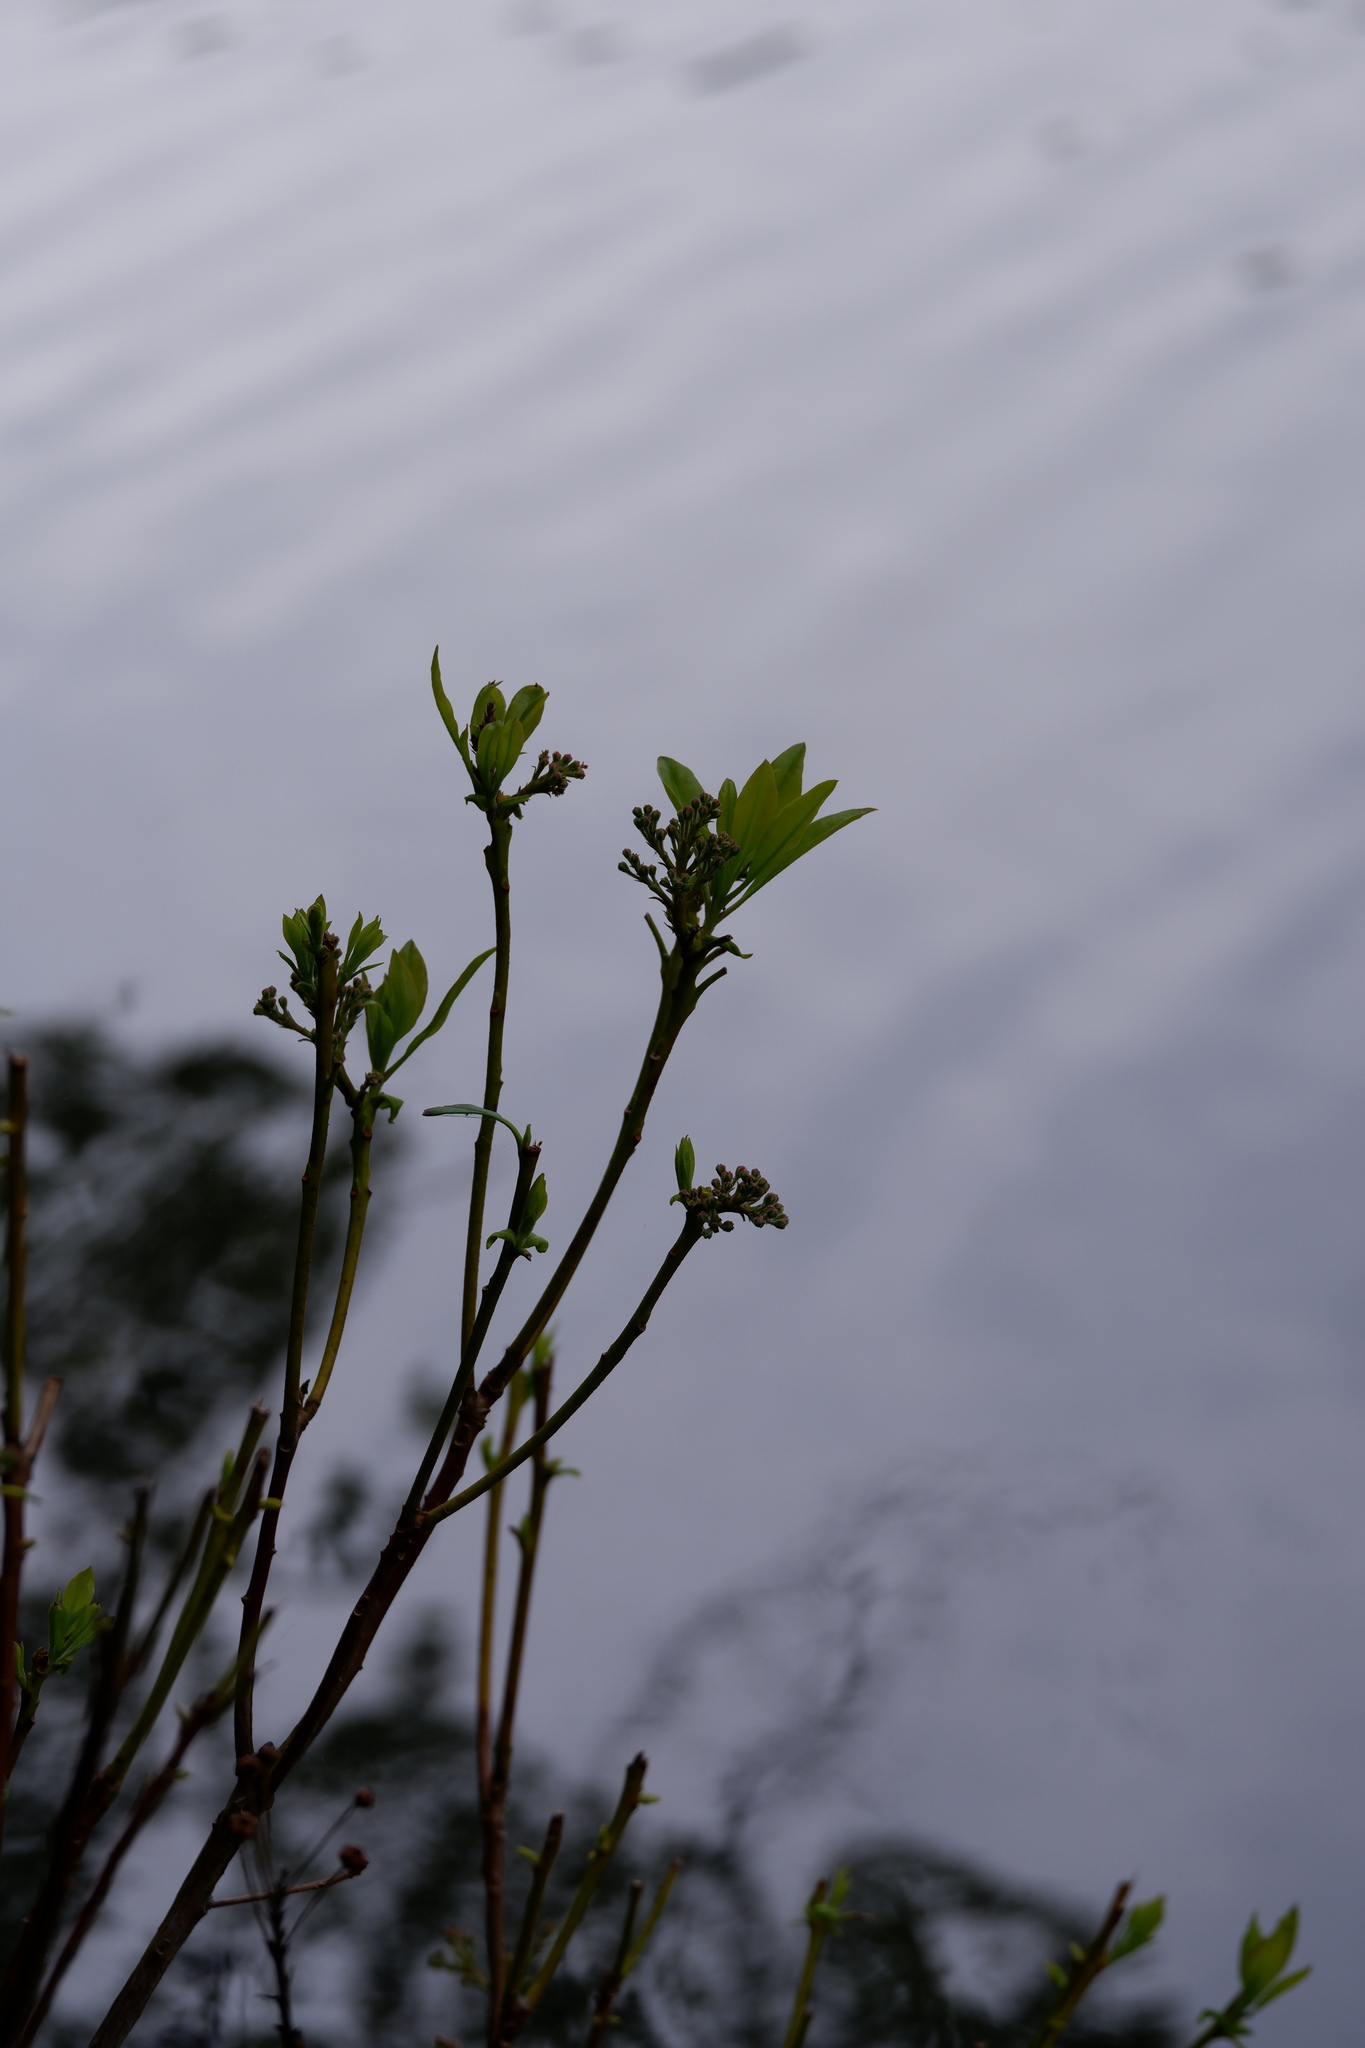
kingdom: Plantae
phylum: Tracheophyta
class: Magnoliopsida
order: Ericales
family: Ericaceae
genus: Kalmia
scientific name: Kalmia latifolia
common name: Mountain-laurel
